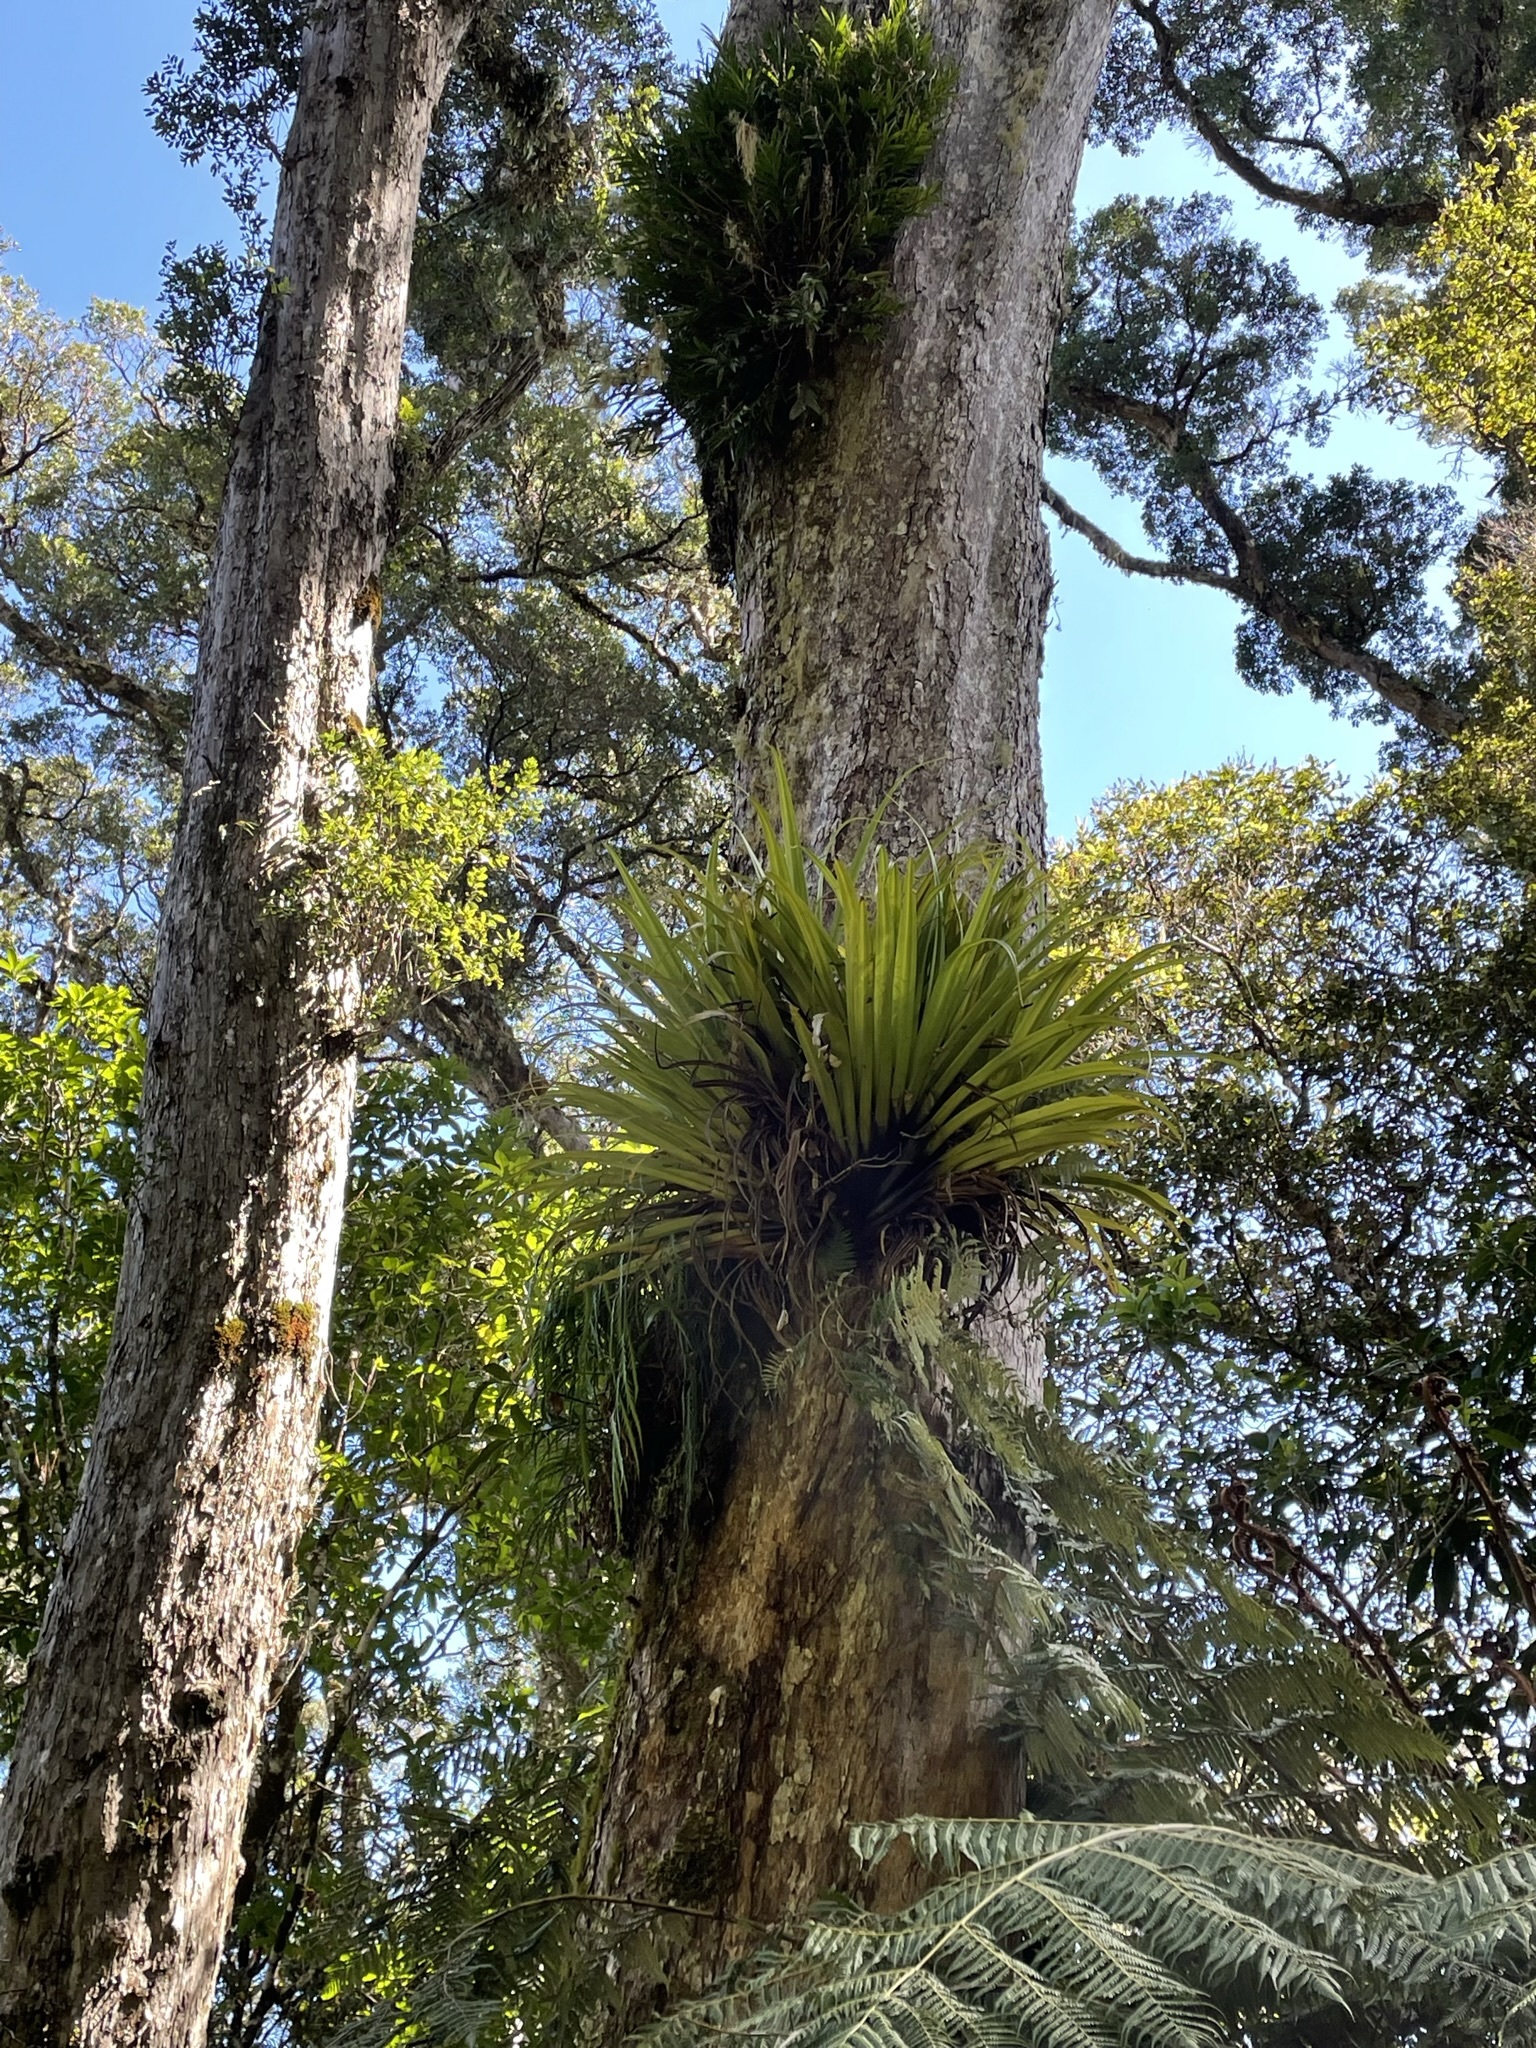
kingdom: Plantae
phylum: Tracheophyta
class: Liliopsida
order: Asparagales
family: Asteliaceae
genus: Astelia
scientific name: Astelia hastata
